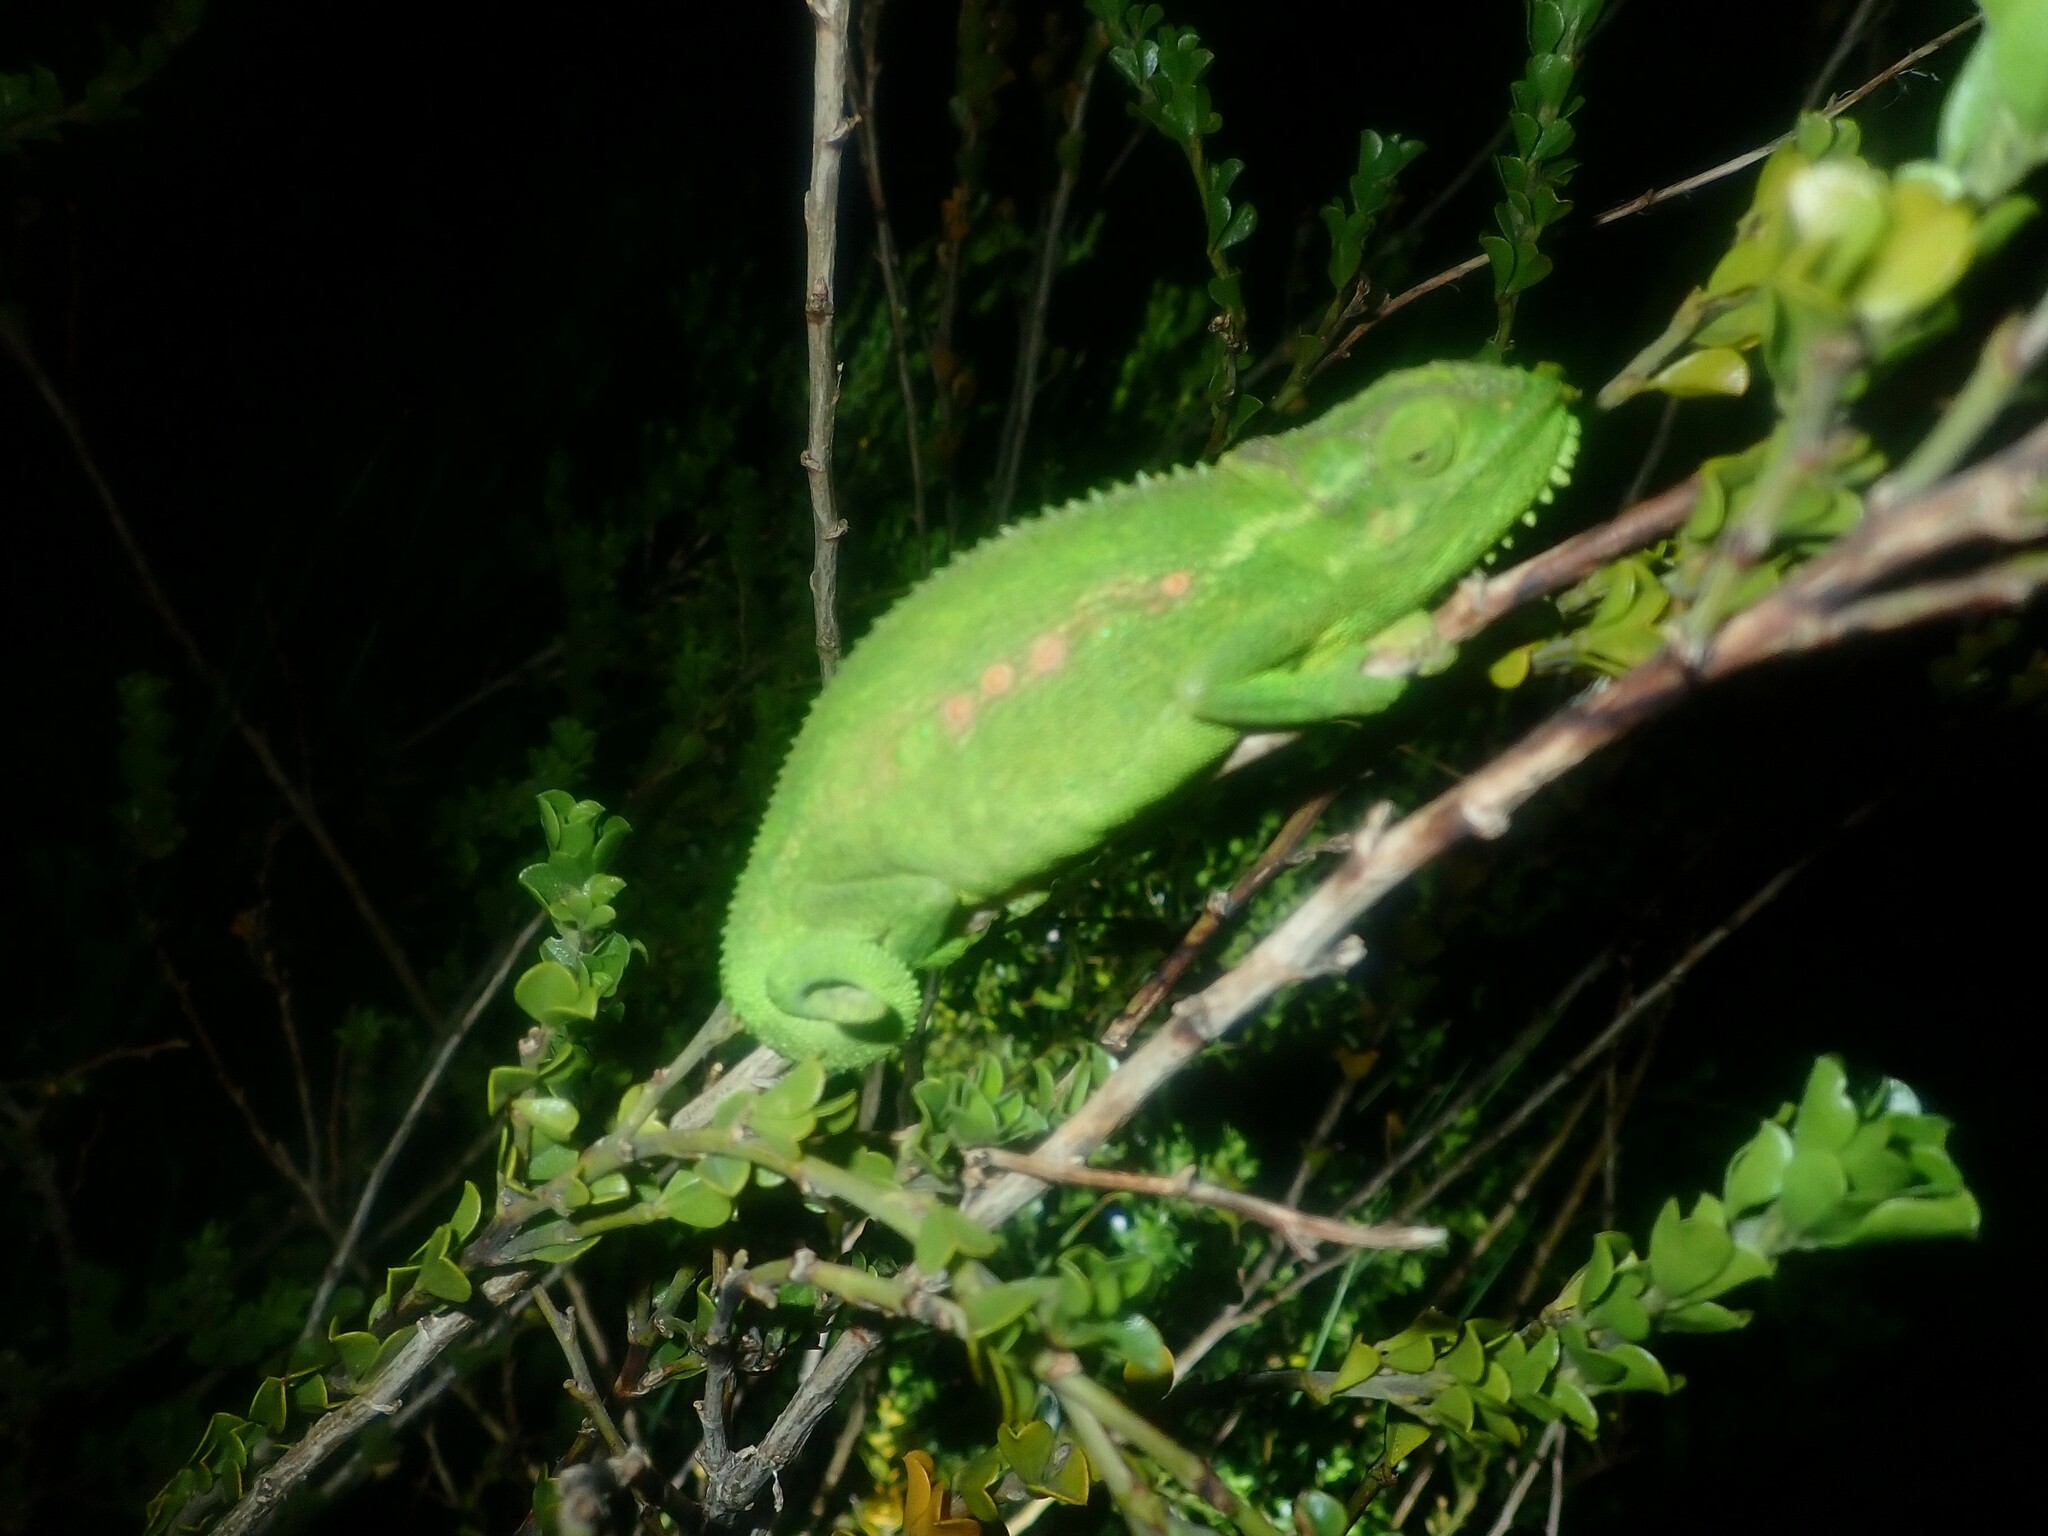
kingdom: Animalia
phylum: Chordata
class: Squamata
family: Chamaeleonidae
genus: Bradypodion
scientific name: Bradypodion pumilum
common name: Cape dwarf chameleon
